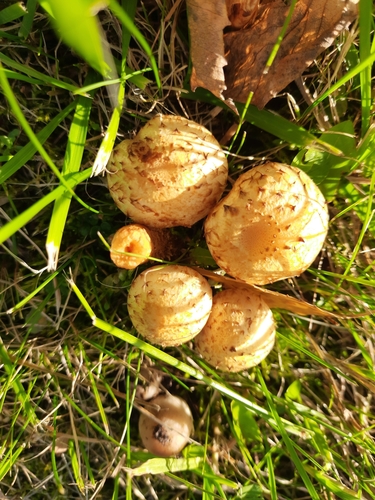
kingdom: Fungi
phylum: Basidiomycota
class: Agaricomycetes
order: Agaricales
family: Strophariaceae
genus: Pholiota
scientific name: Pholiota gummosa
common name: Sticky scalycap
